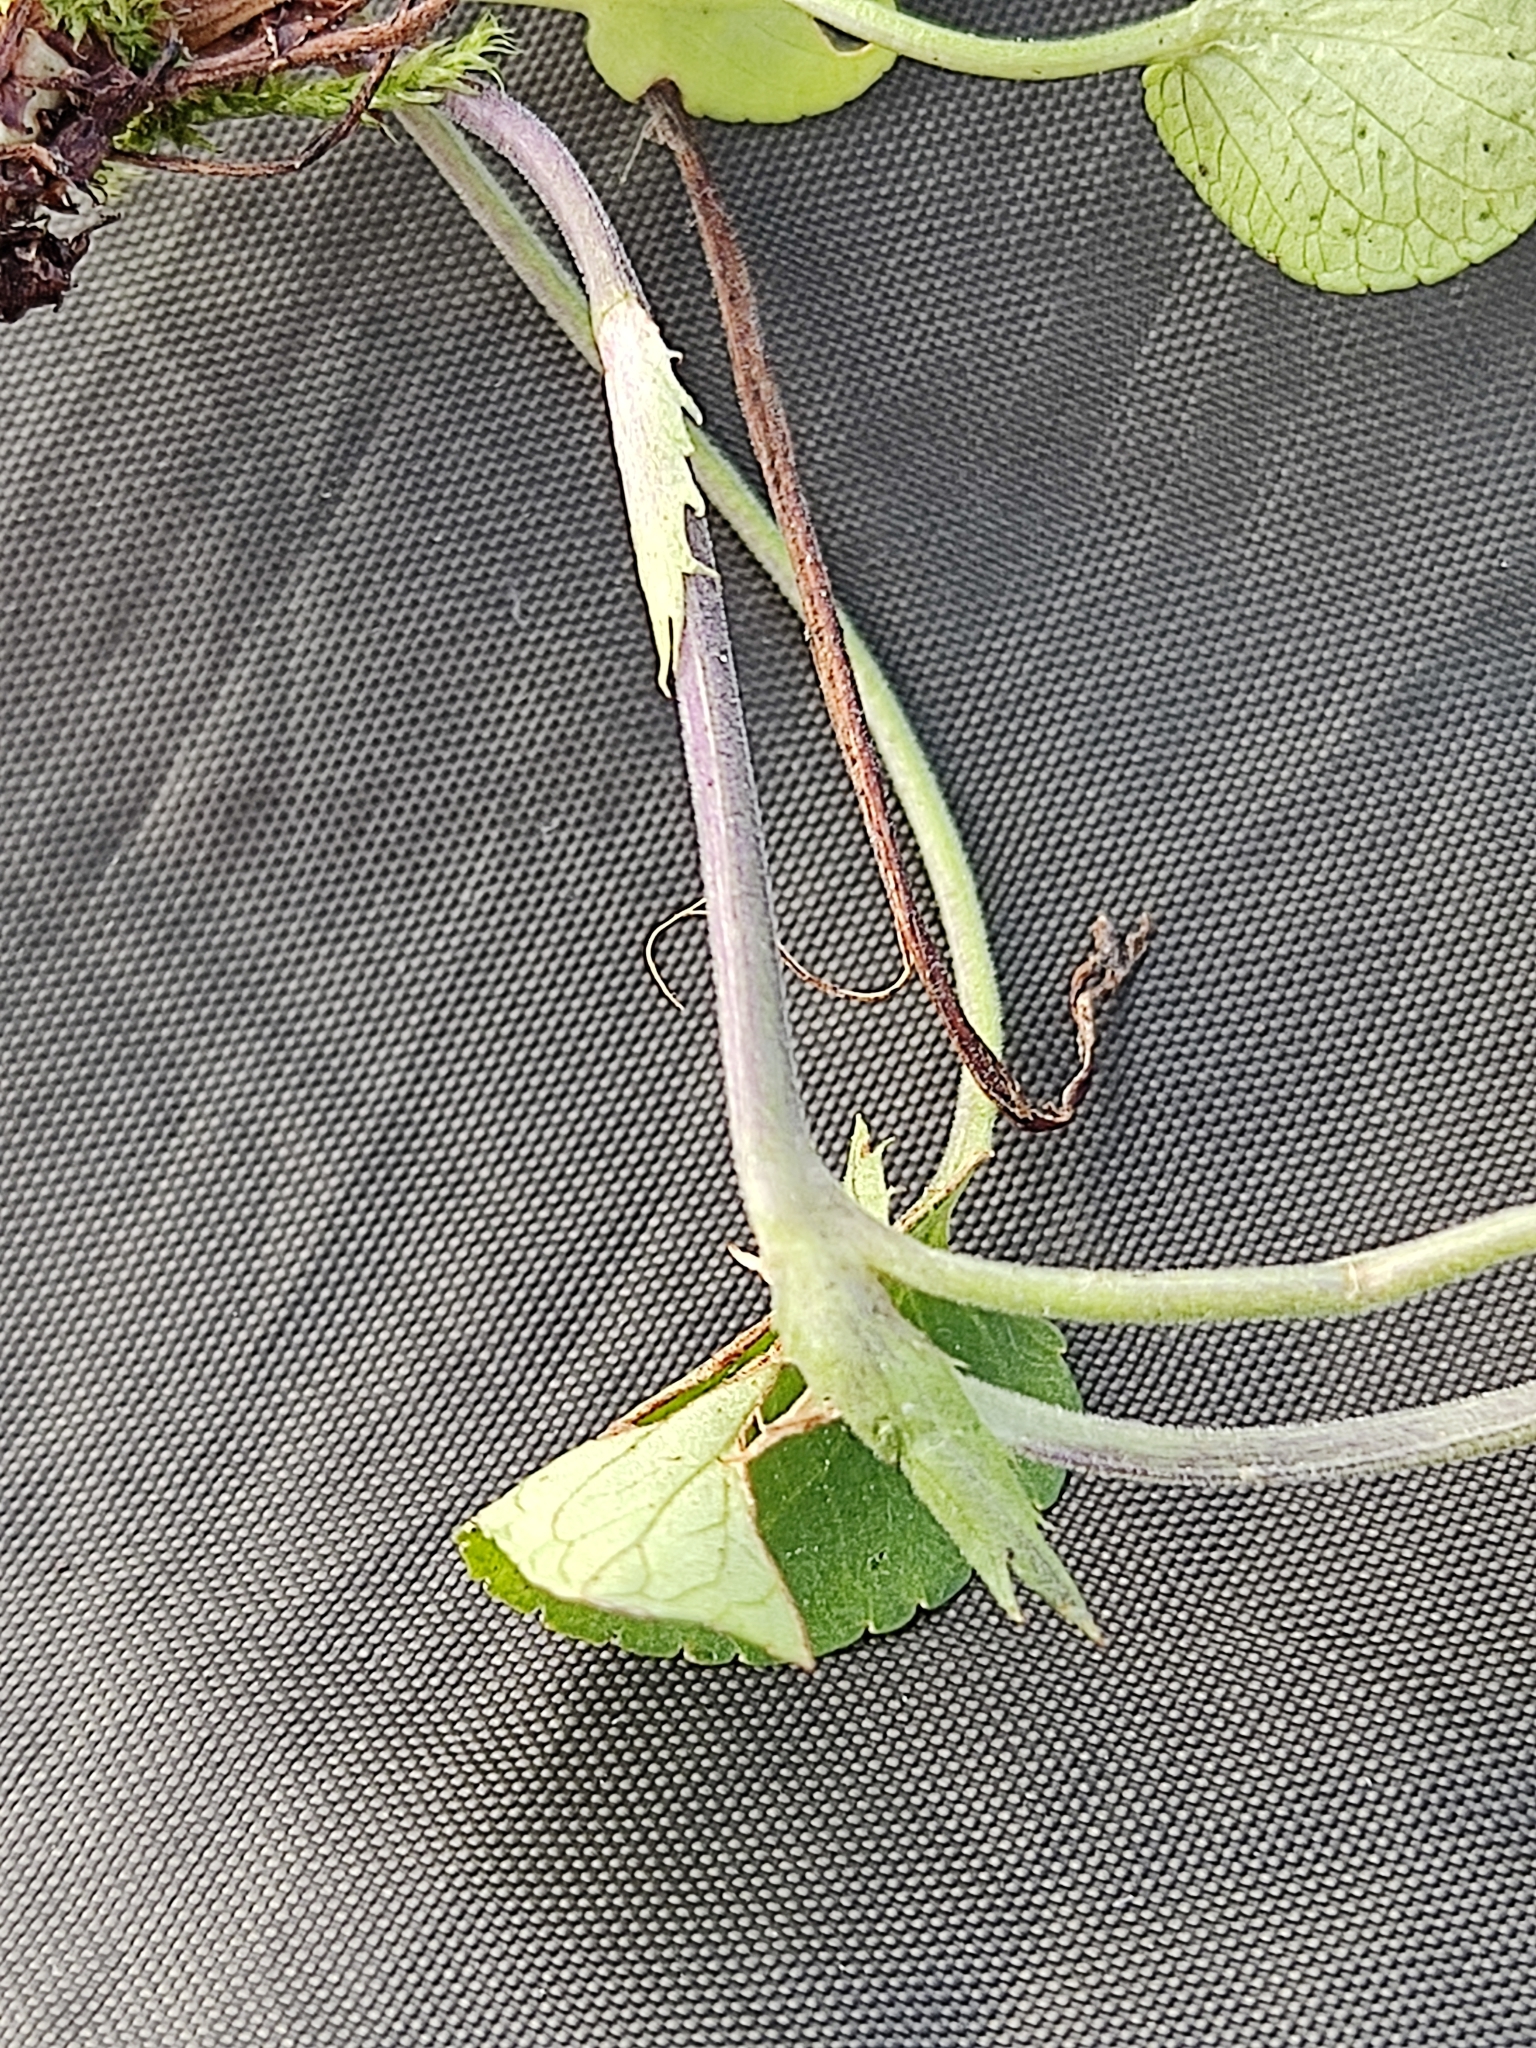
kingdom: Plantae
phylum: Tracheophyta
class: Magnoliopsida
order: Malpighiales
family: Violaceae
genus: Viola
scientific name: Viola rupestris
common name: Teesdale violet
